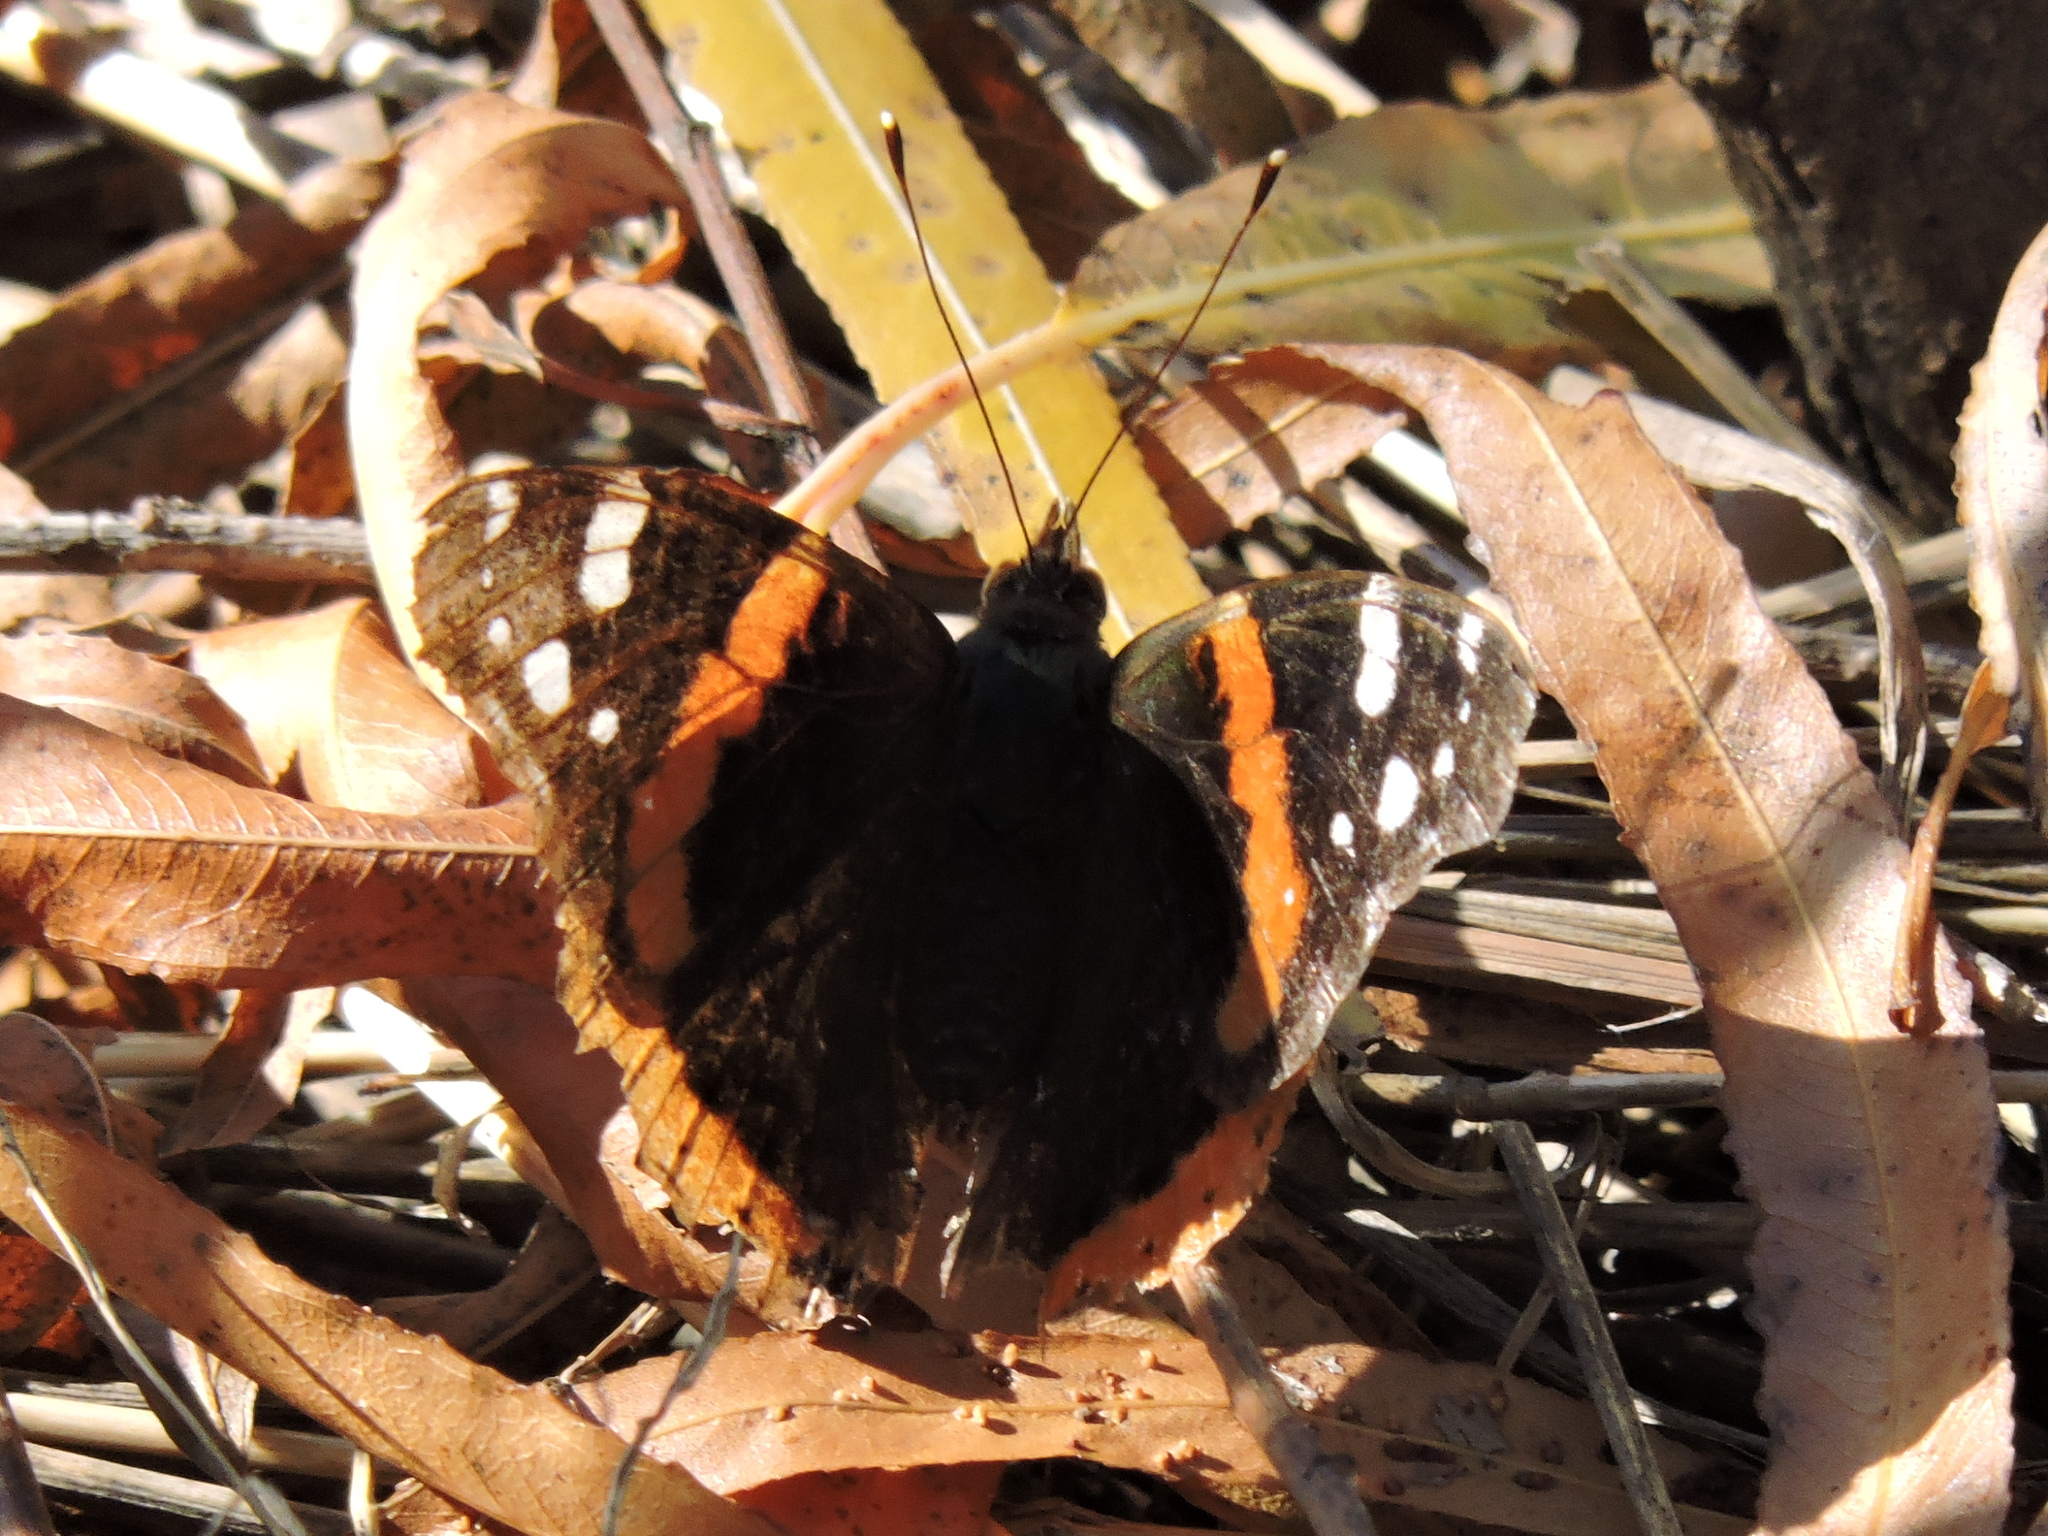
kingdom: Animalia
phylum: Arthropoda
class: Insecta
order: Lepidoptera
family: Nymphalidae
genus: Vanessa
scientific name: Vanessa atalanta
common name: Red admiral
